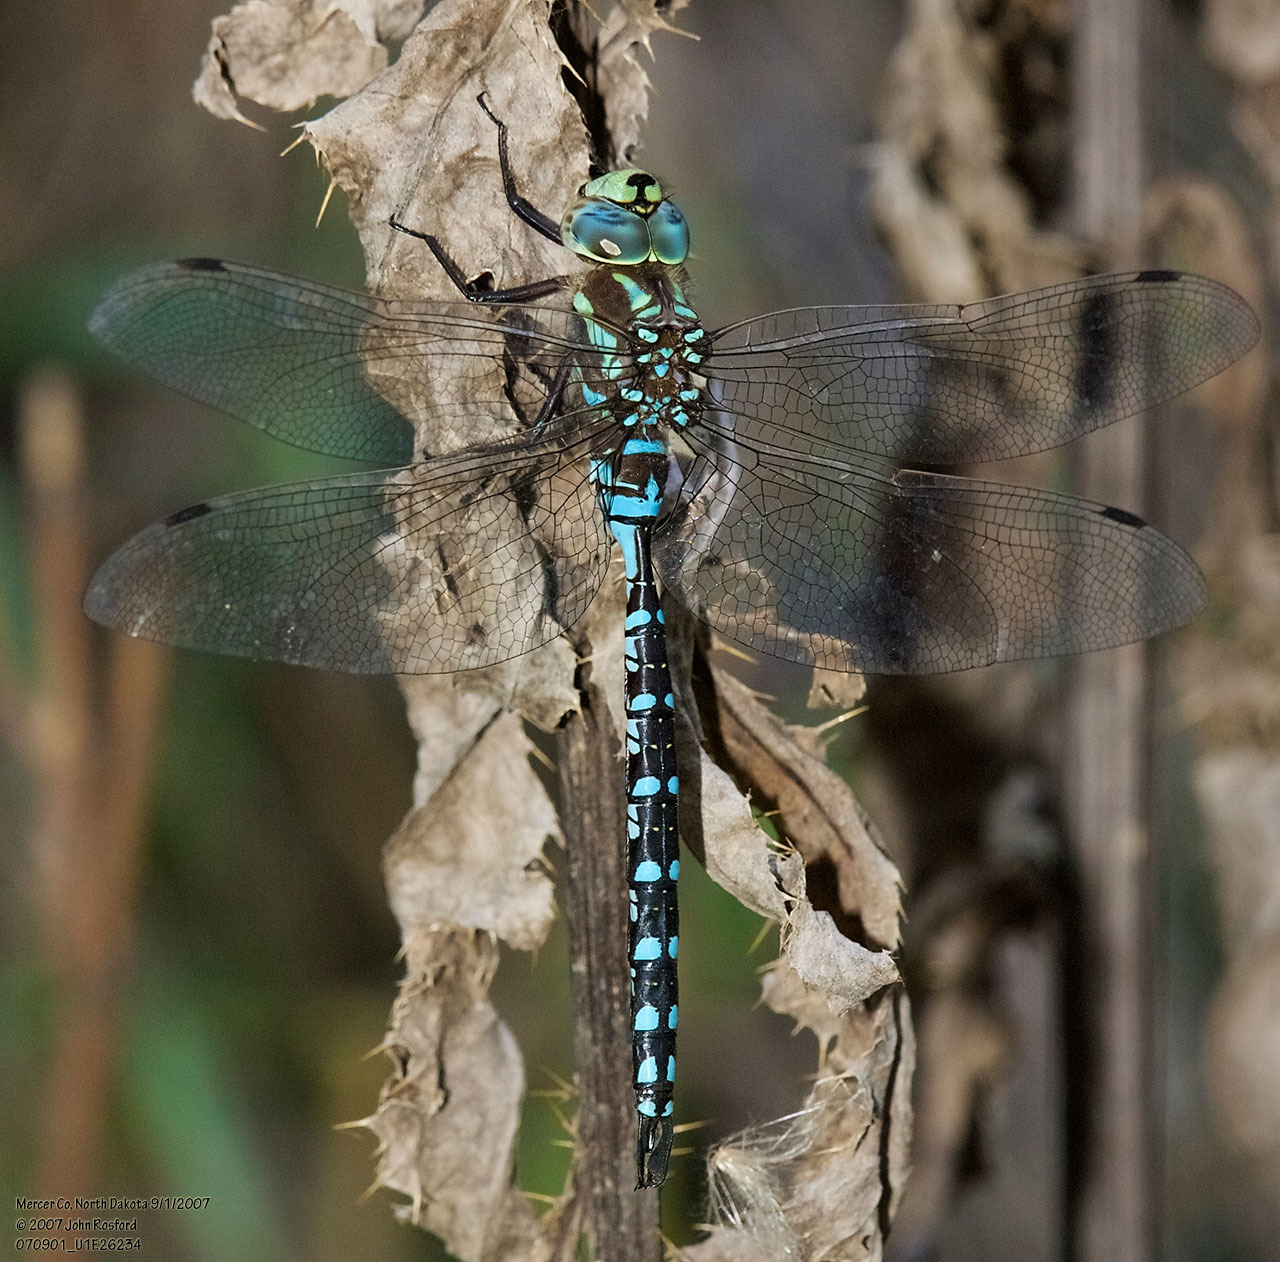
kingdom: Animalia
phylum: Arthropoda
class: Insecta
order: Odonata
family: Aeshnidae
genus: Aeshna
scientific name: Aeshna constricta
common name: Lance-tipped darner
